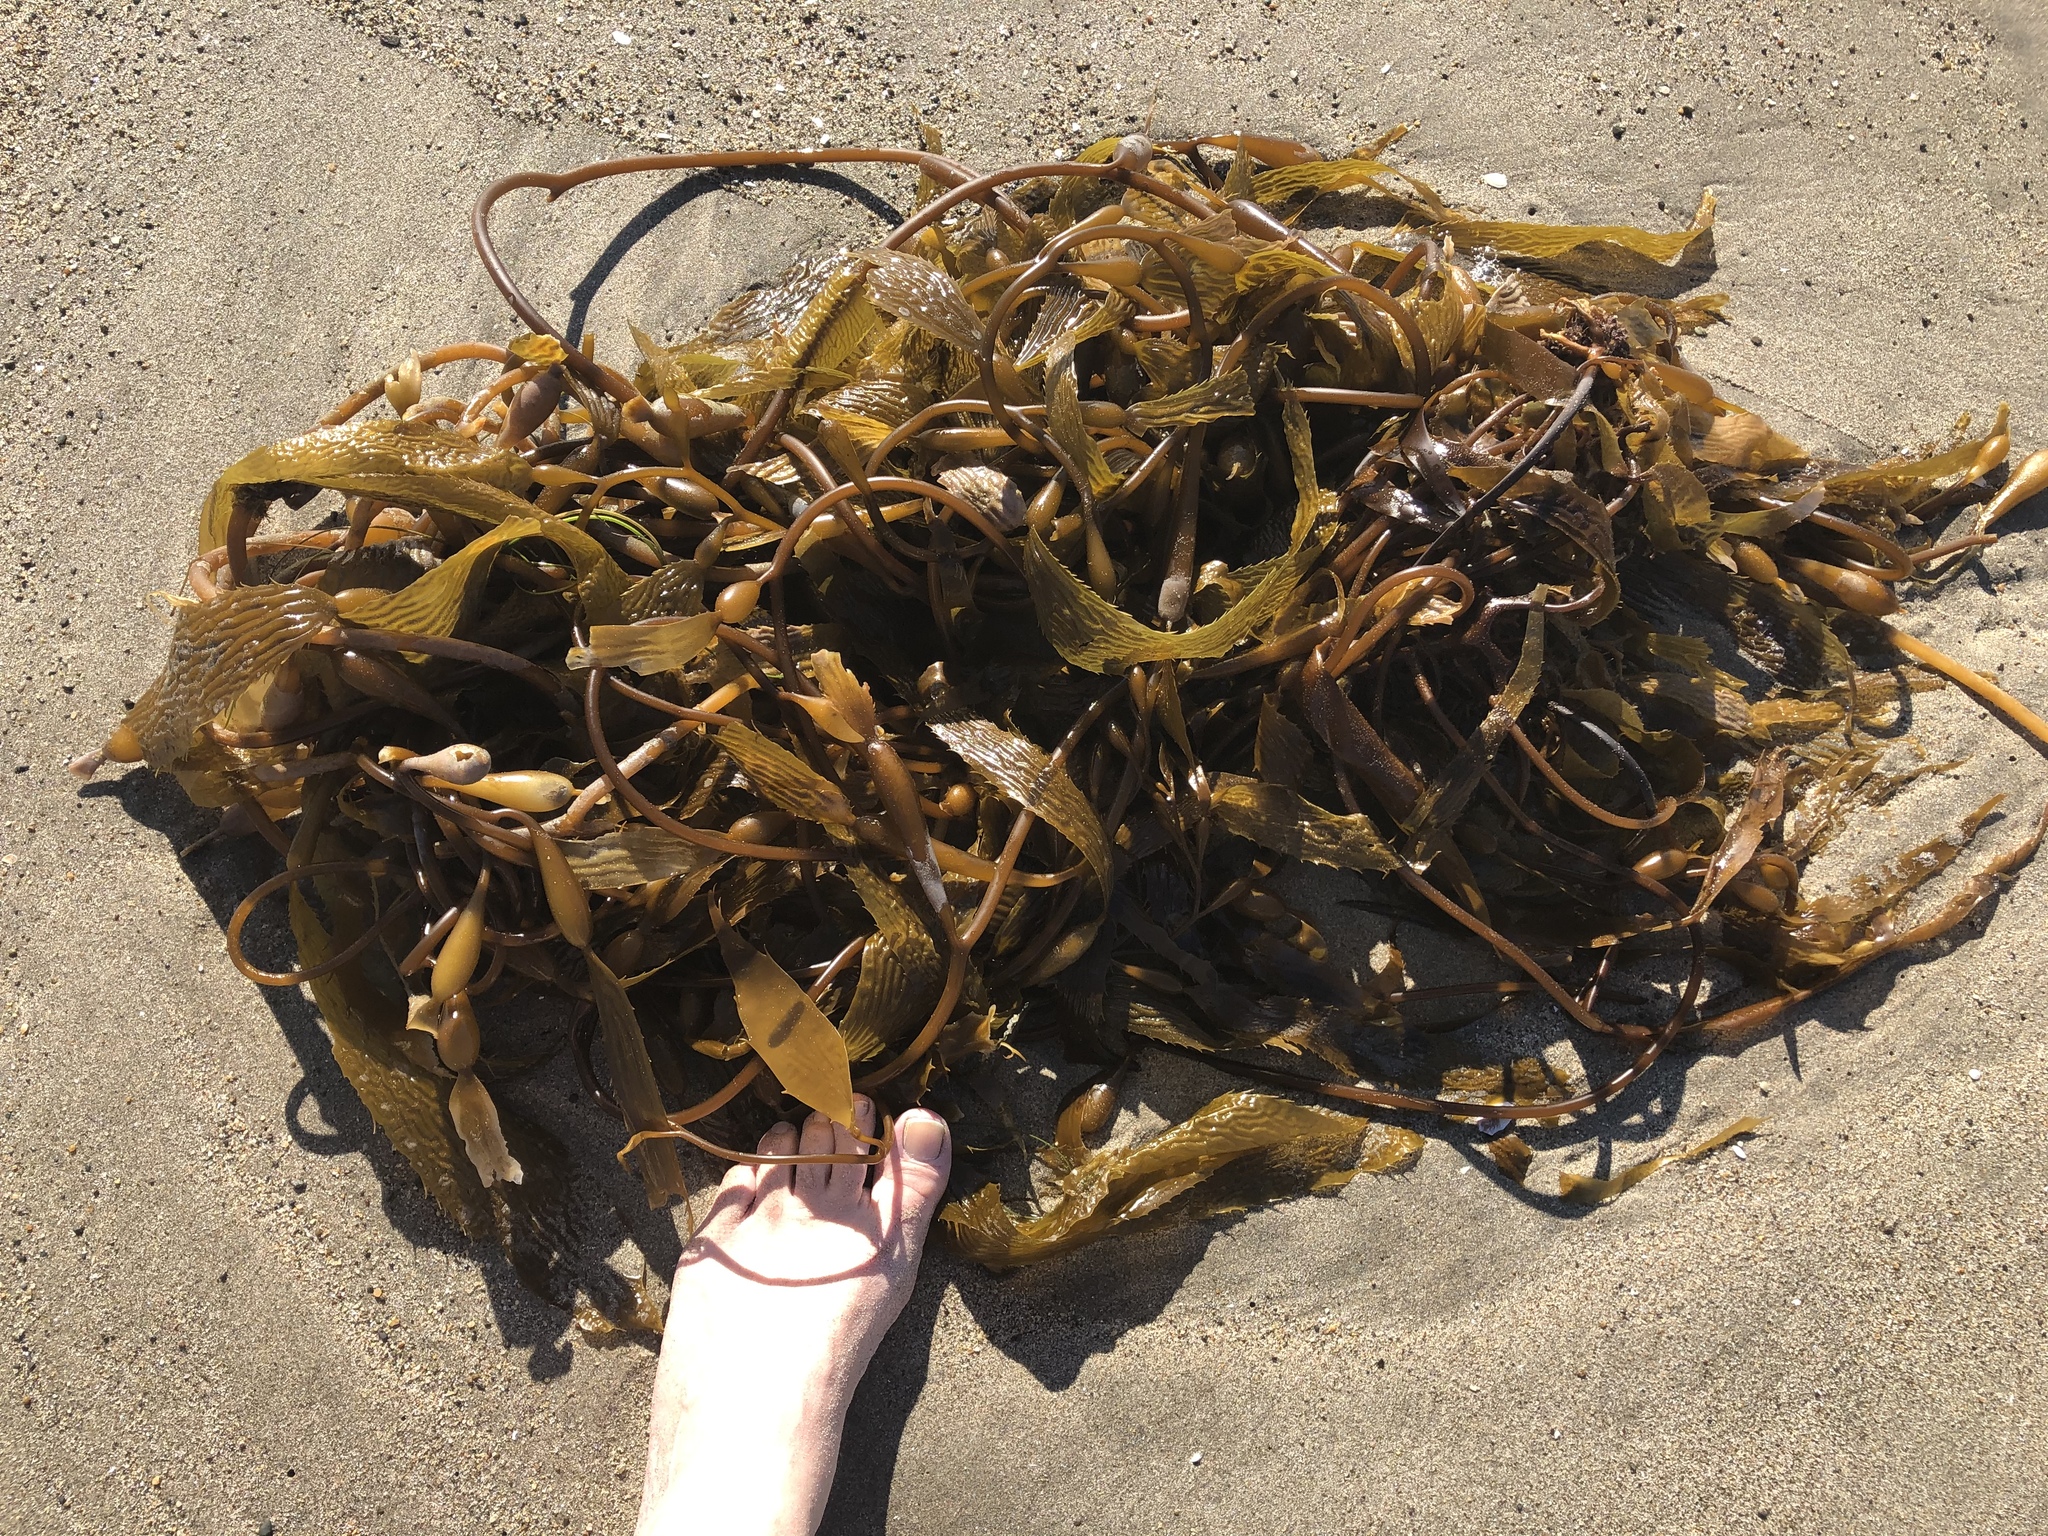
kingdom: Chromista
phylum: Ochrophyta
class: Phaeophyceae
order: Laminariales
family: Laminariaceae
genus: Macrocystis
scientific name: Macrocystis pyrifera
